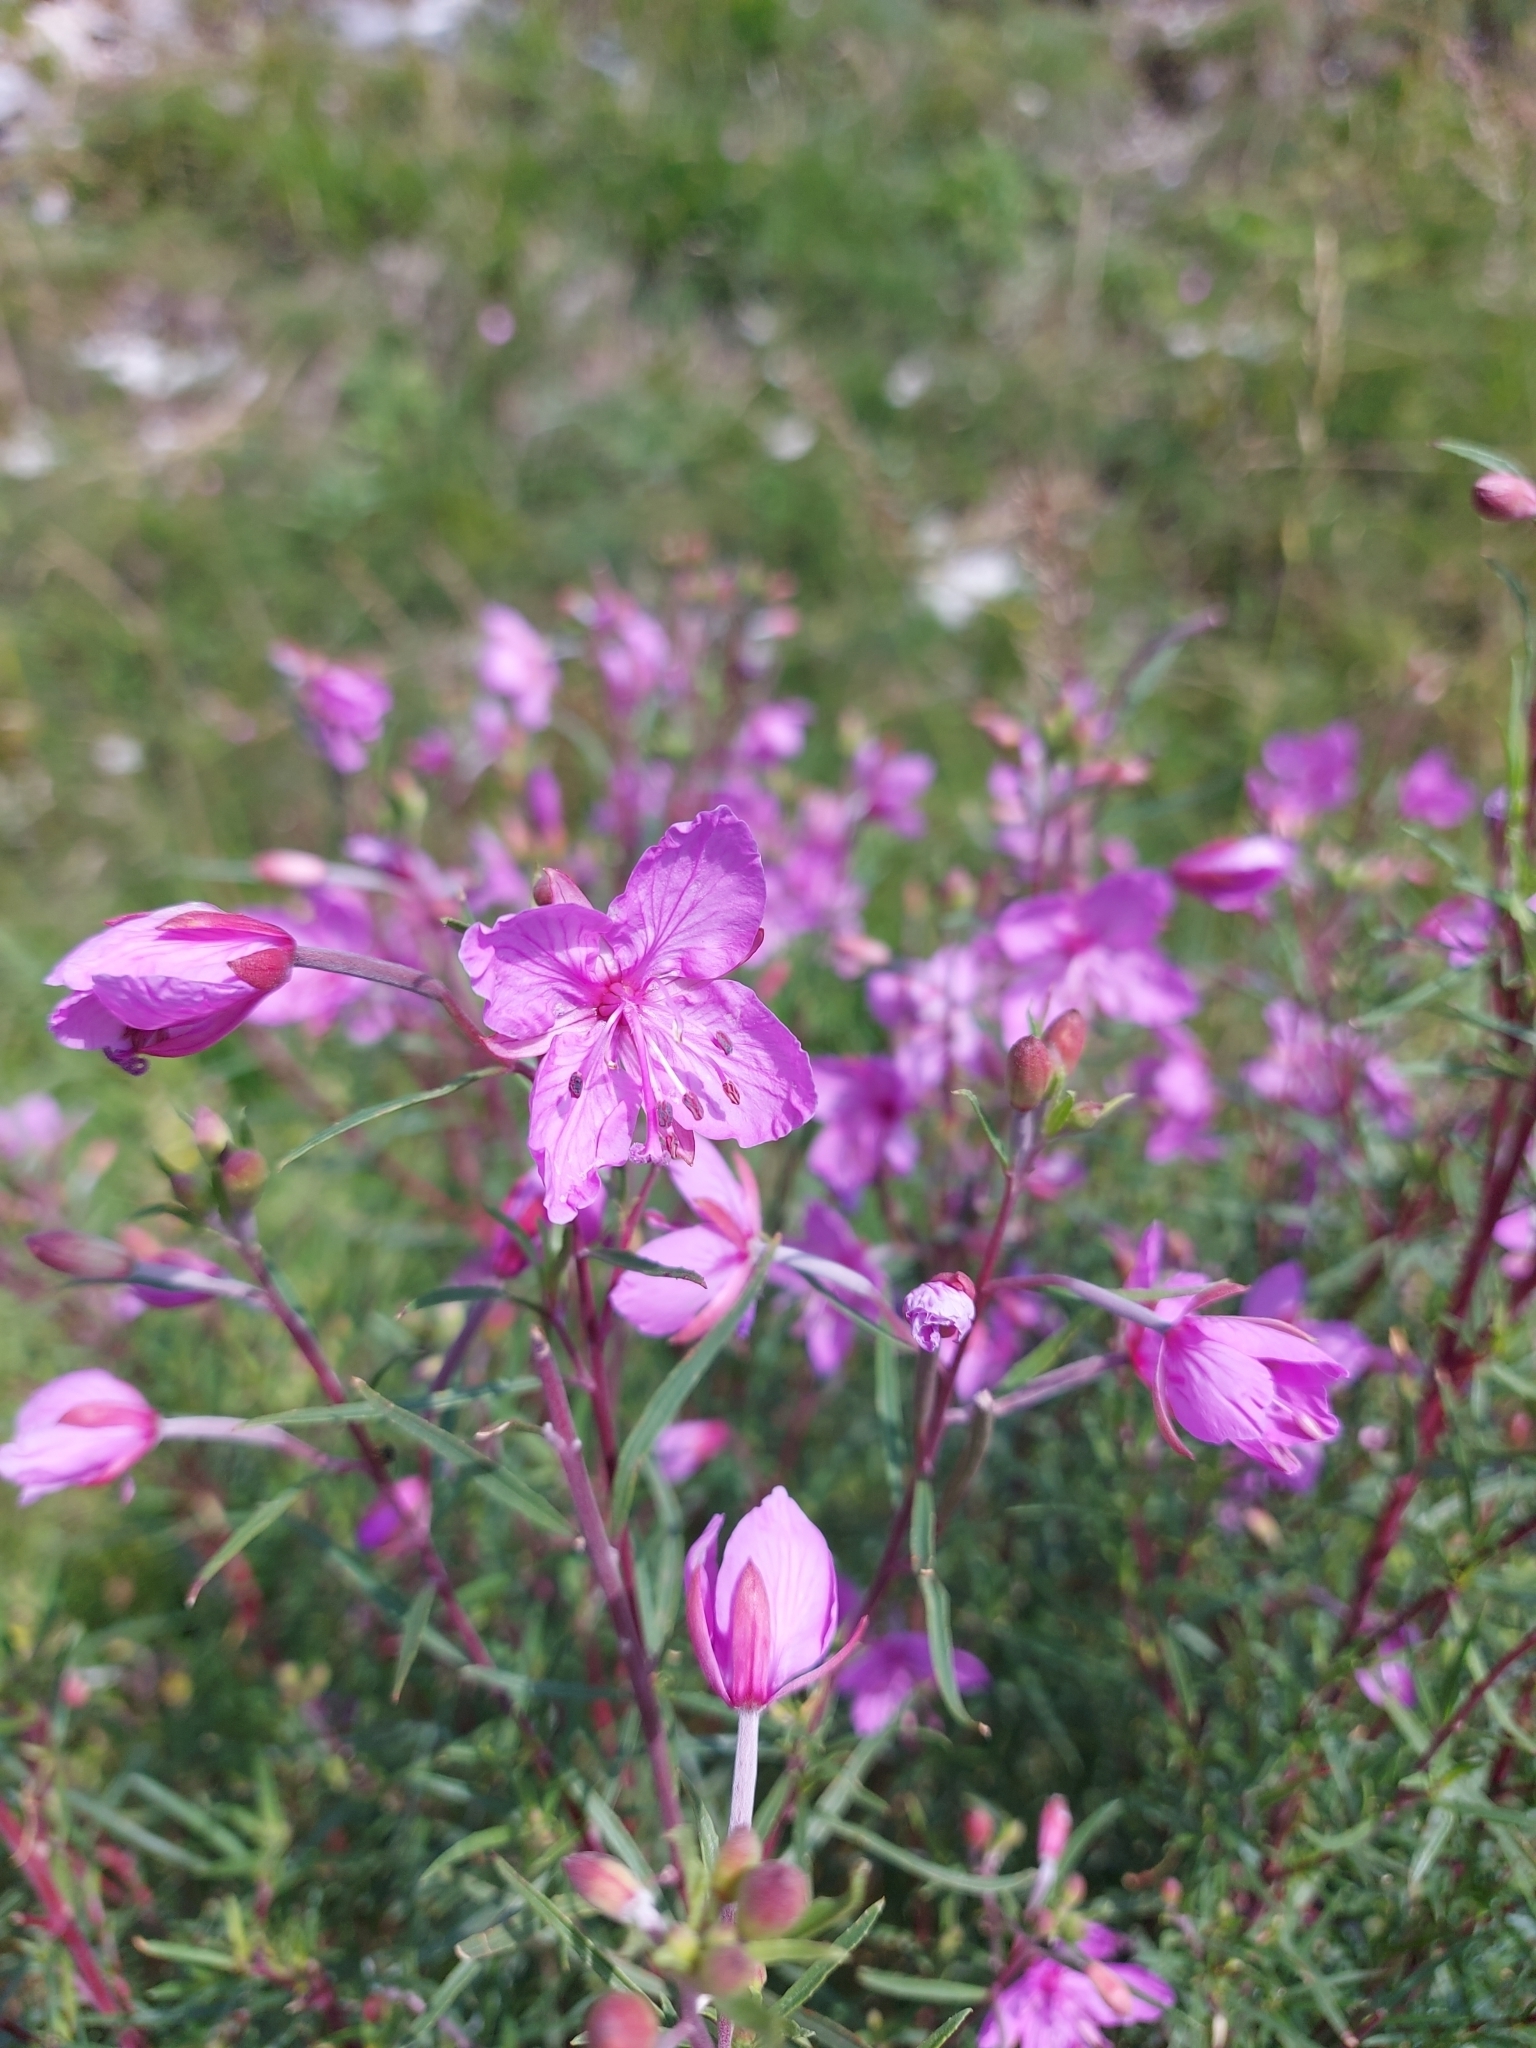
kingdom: Plantae
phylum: Tracheophyta
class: Magnoliopsida
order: Myrtales
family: Onagraceae
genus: Chamaenerion
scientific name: Chamaenerion dodonaei
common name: Rosemary-leaved willowherb
